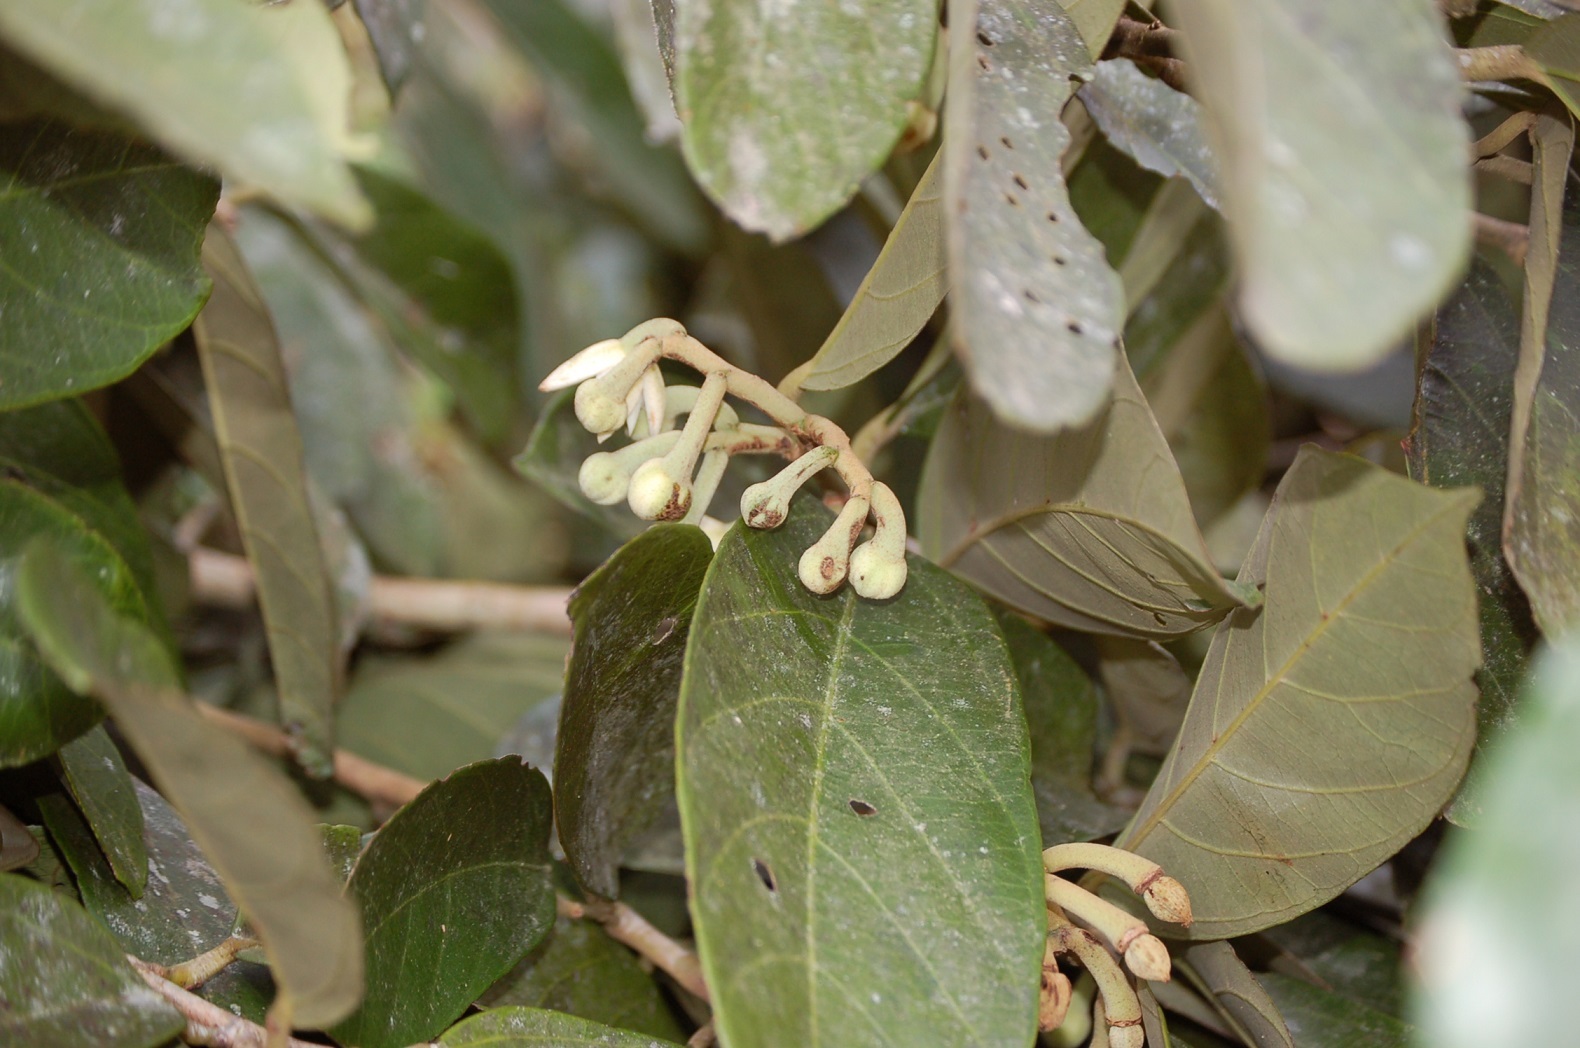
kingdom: Plantae
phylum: Tracheophyta
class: Magnoliopsida
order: Malvales
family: Malvaceae
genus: Mortoniodendron
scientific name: Mortoniodendron ocotense
